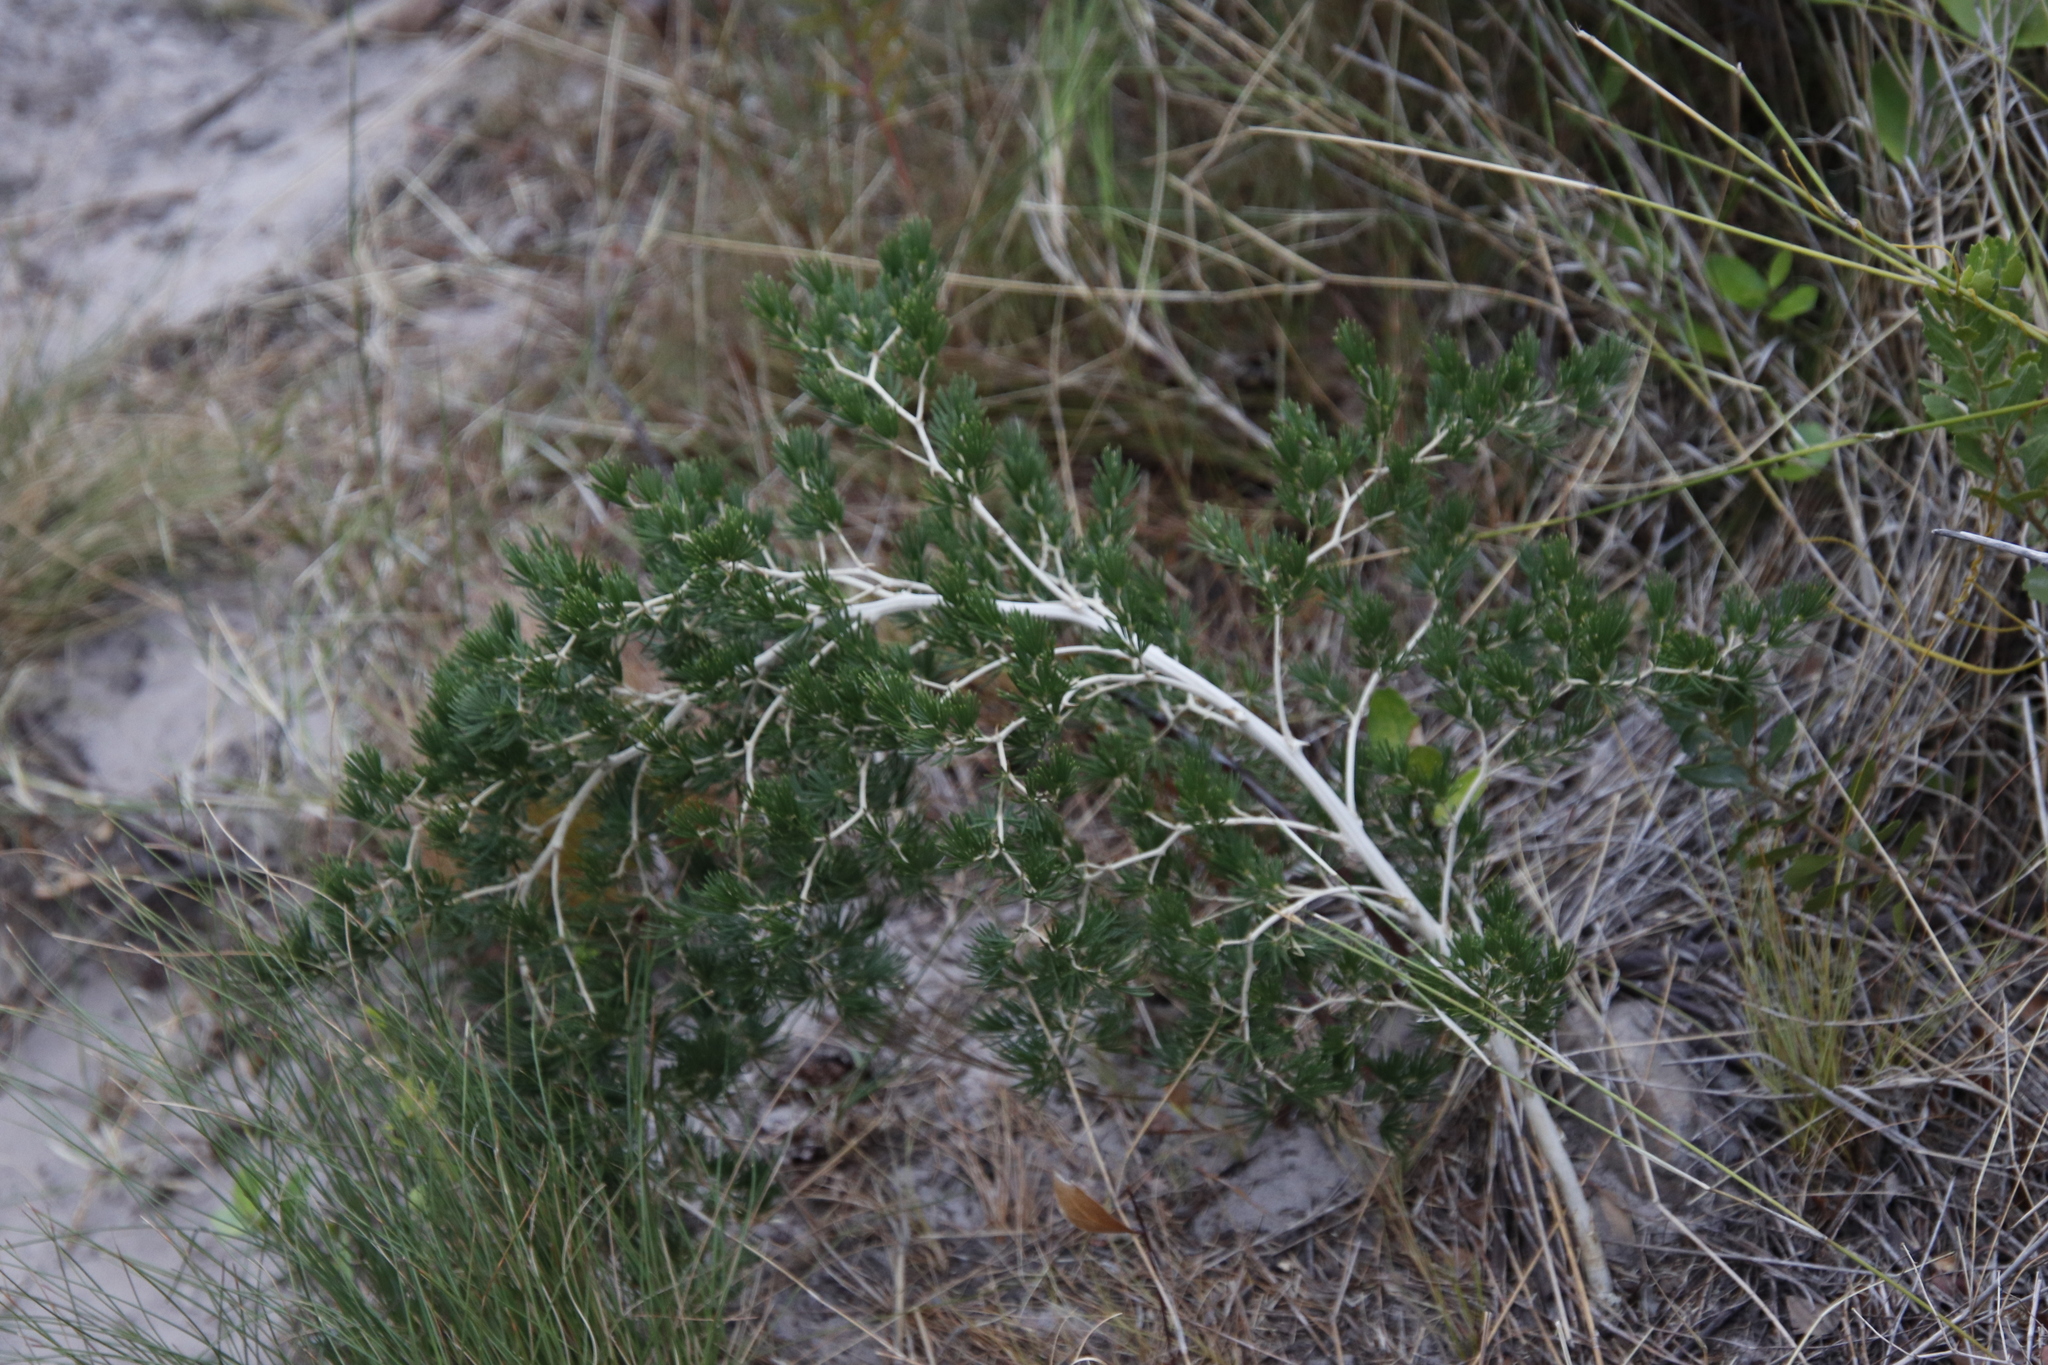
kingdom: Plantae
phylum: Tracheophyta
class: Liliopsida
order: Asparagales
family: Asparagaceae
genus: Asparagus
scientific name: Asparagus lignosus
